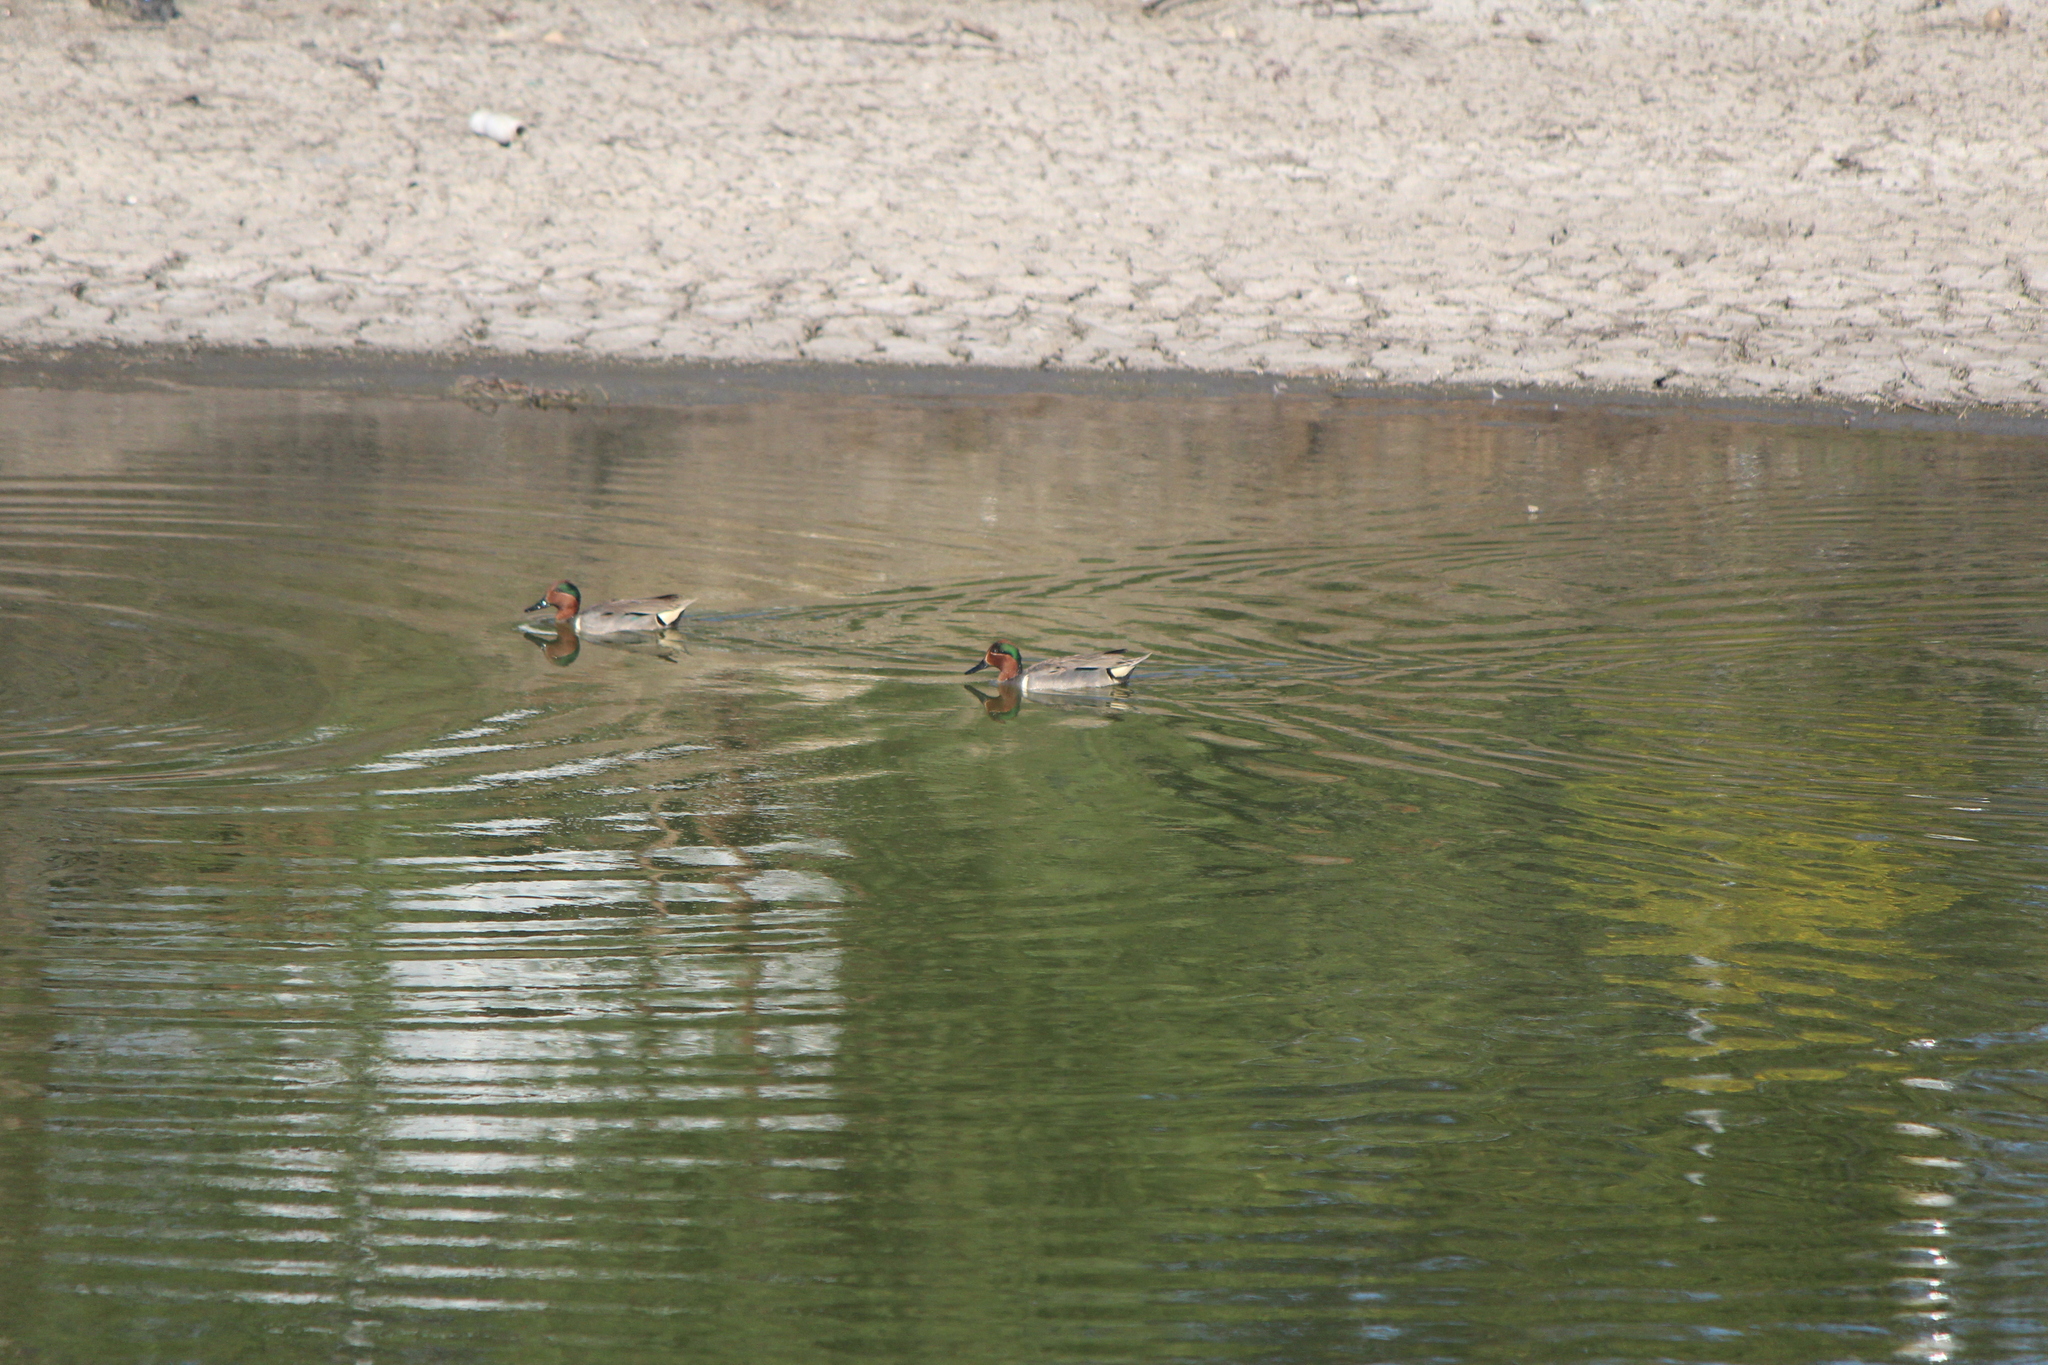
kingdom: Animalia
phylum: Chordata
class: Aves
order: Anseriformes
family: Anatidae
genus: Anas
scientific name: Anas crecca
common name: Eurasian teal
